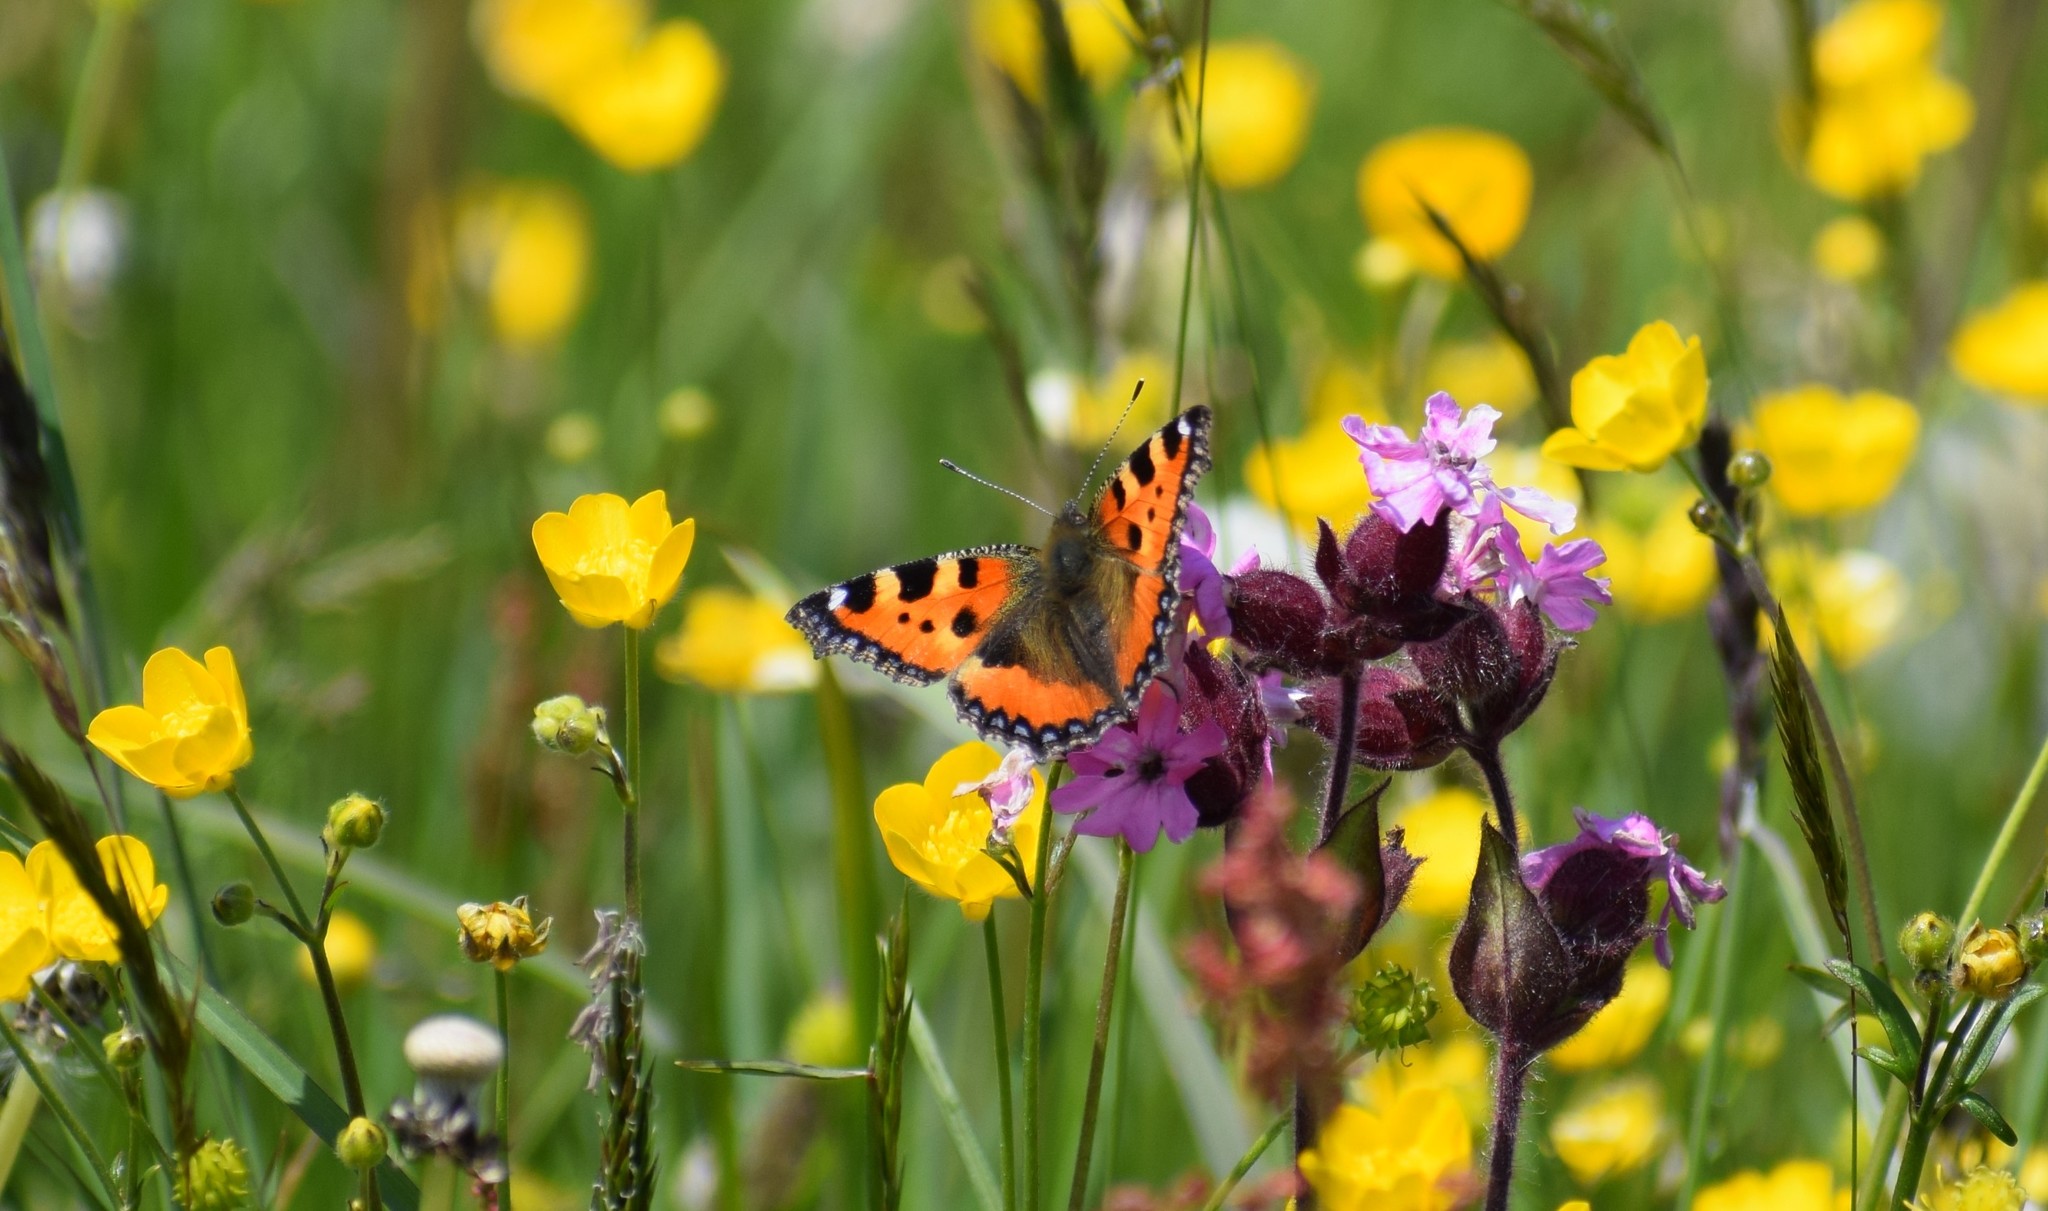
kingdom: Animalia
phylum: Arthropoda
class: Insecta
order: Lepidoptera
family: Nymphalidae
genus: Aglais
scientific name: Aglais urticae
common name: Small tortoiseshell
